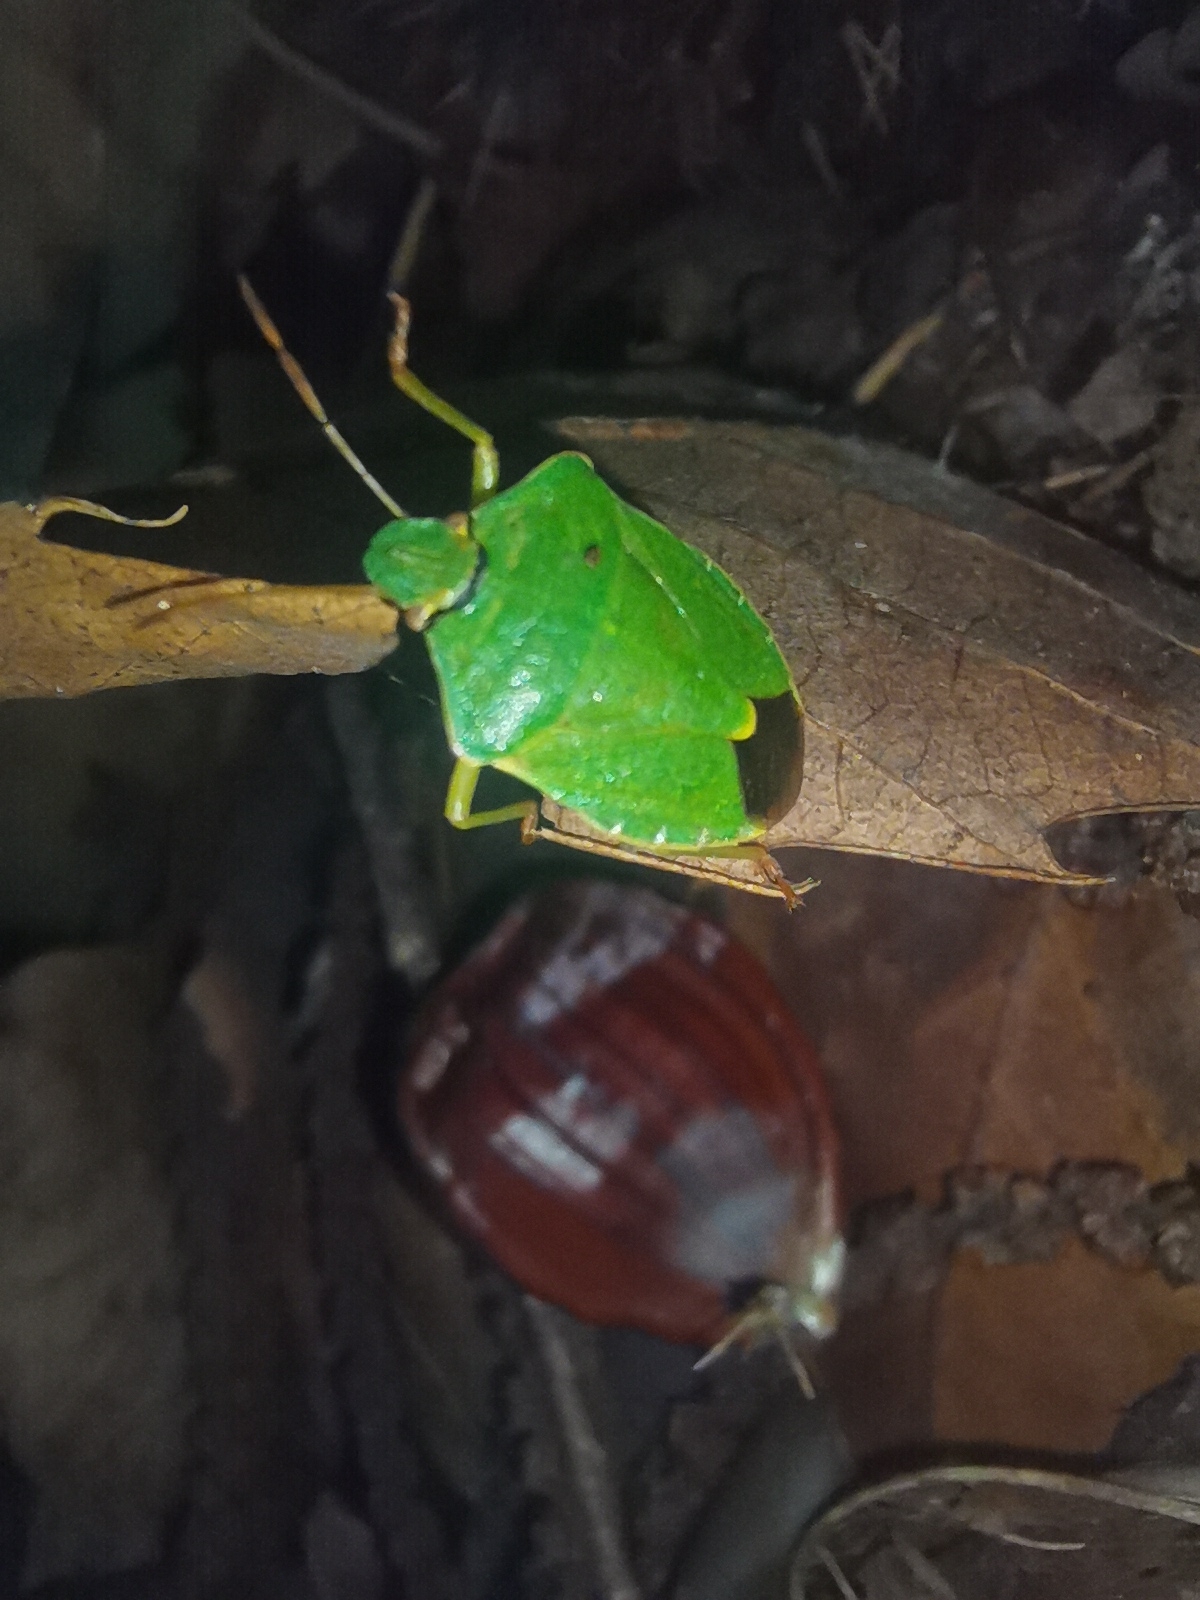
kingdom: Animalia
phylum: Arthropoda
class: Insecta
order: Hemiptera
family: Pentatomidae
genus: Palomena
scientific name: Palomena prasina
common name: Green shieldbug
